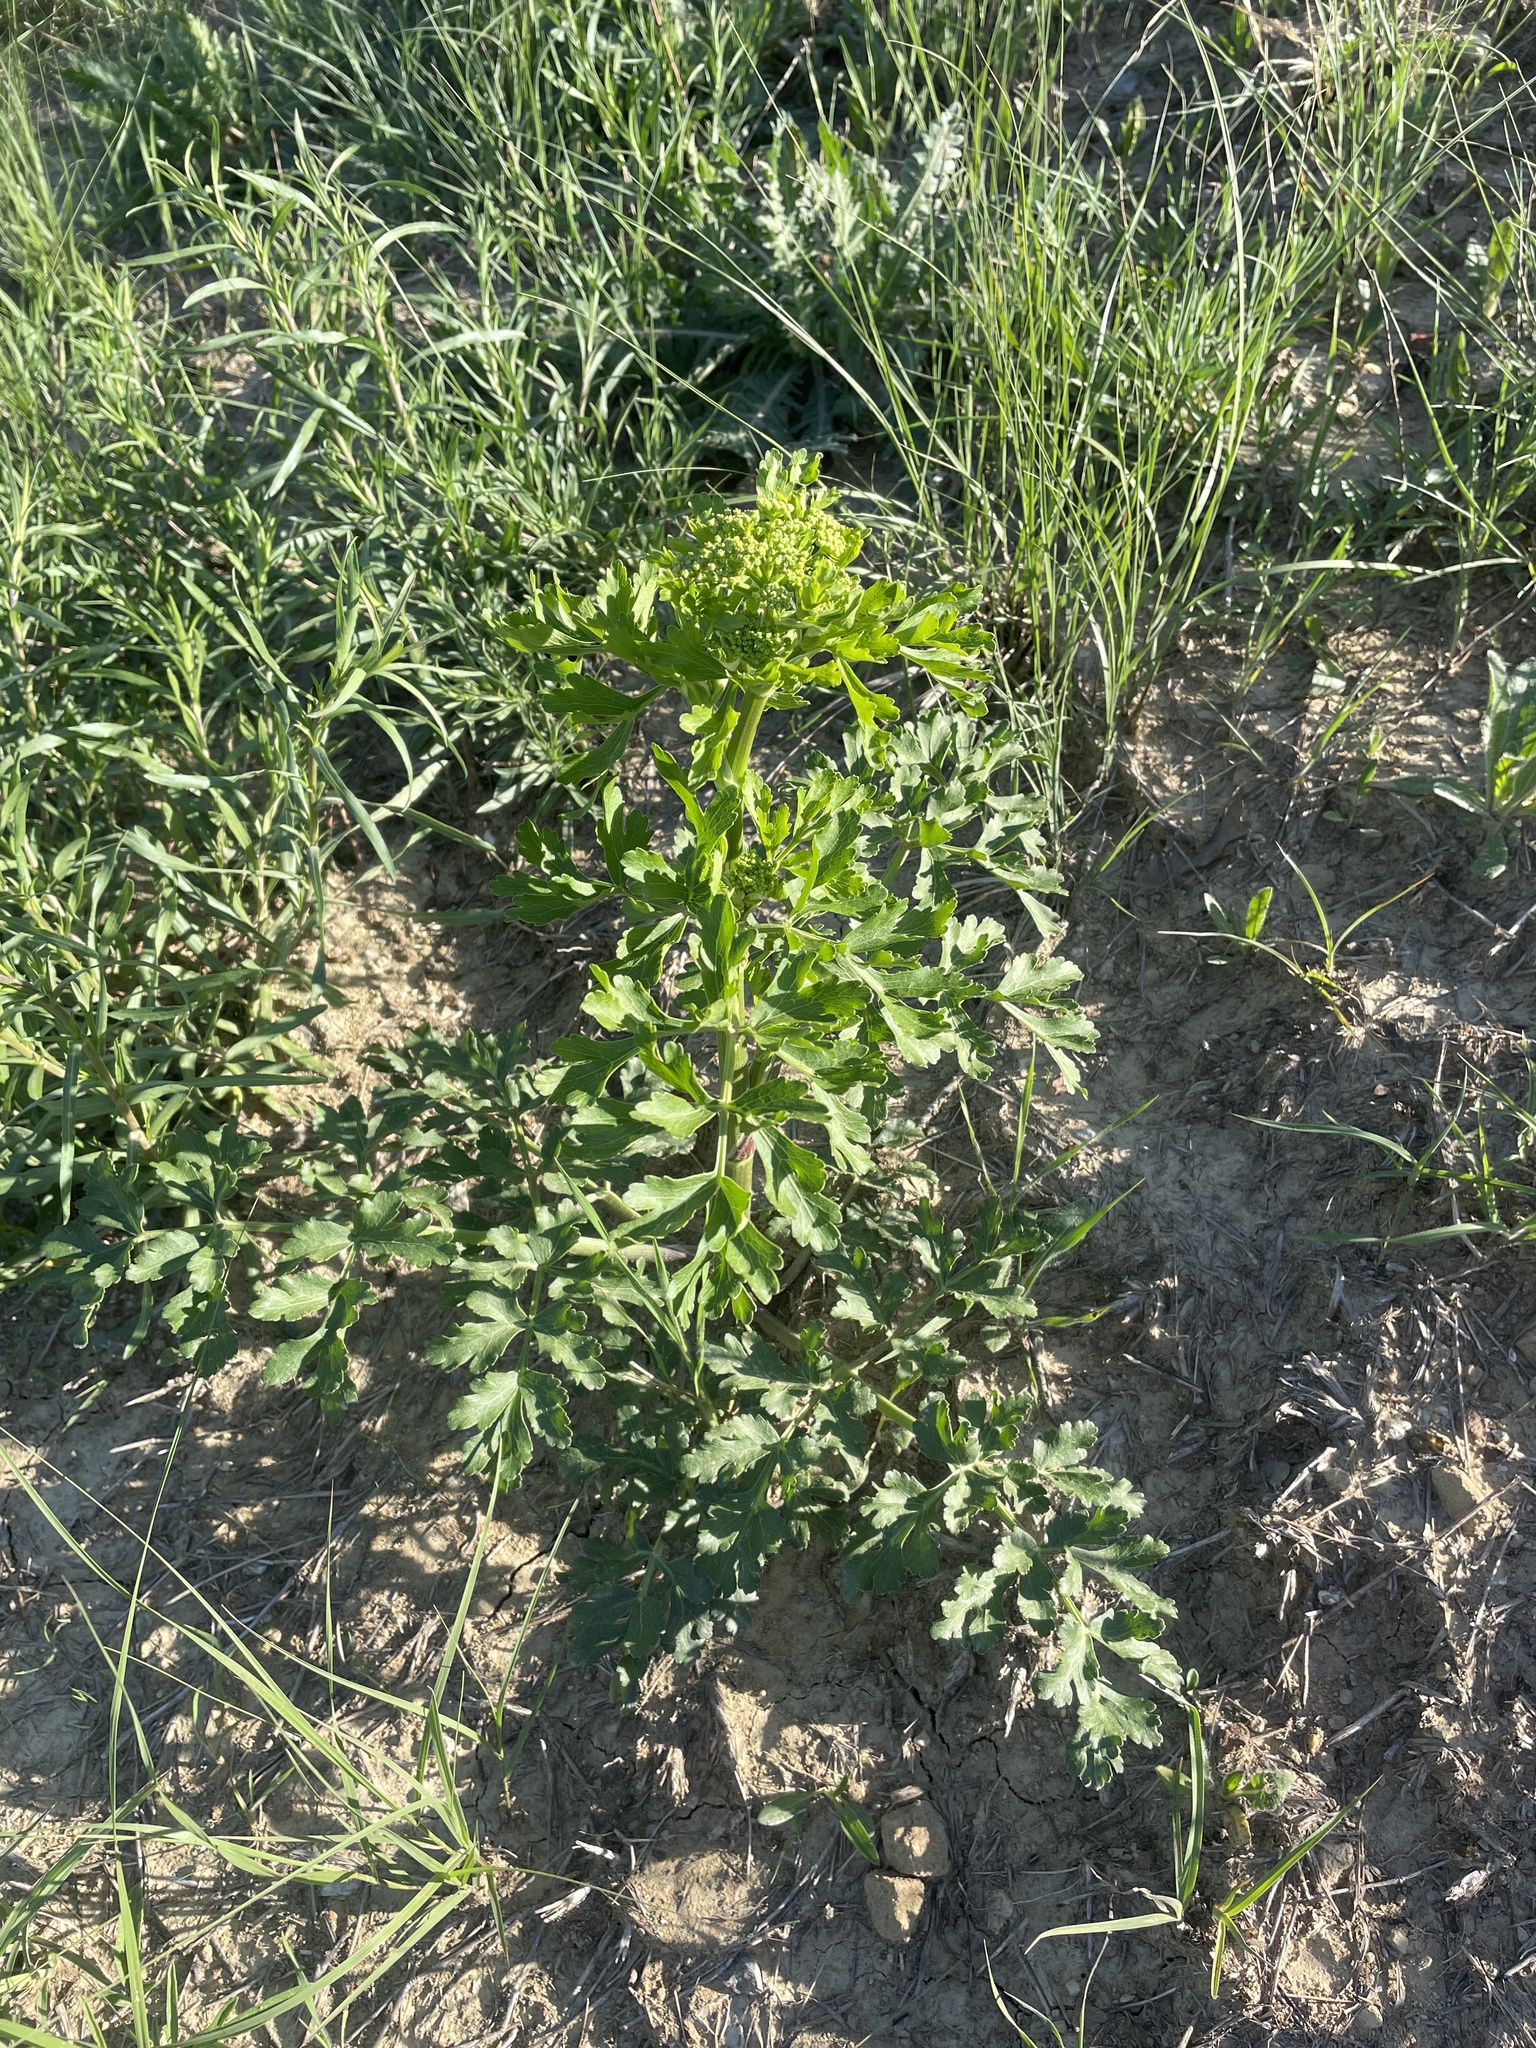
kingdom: Plantae
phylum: Tracheophyta
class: Magnoliopsida
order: Apiales
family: Apiaceae
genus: Polytaenia
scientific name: Polytaenia texana
